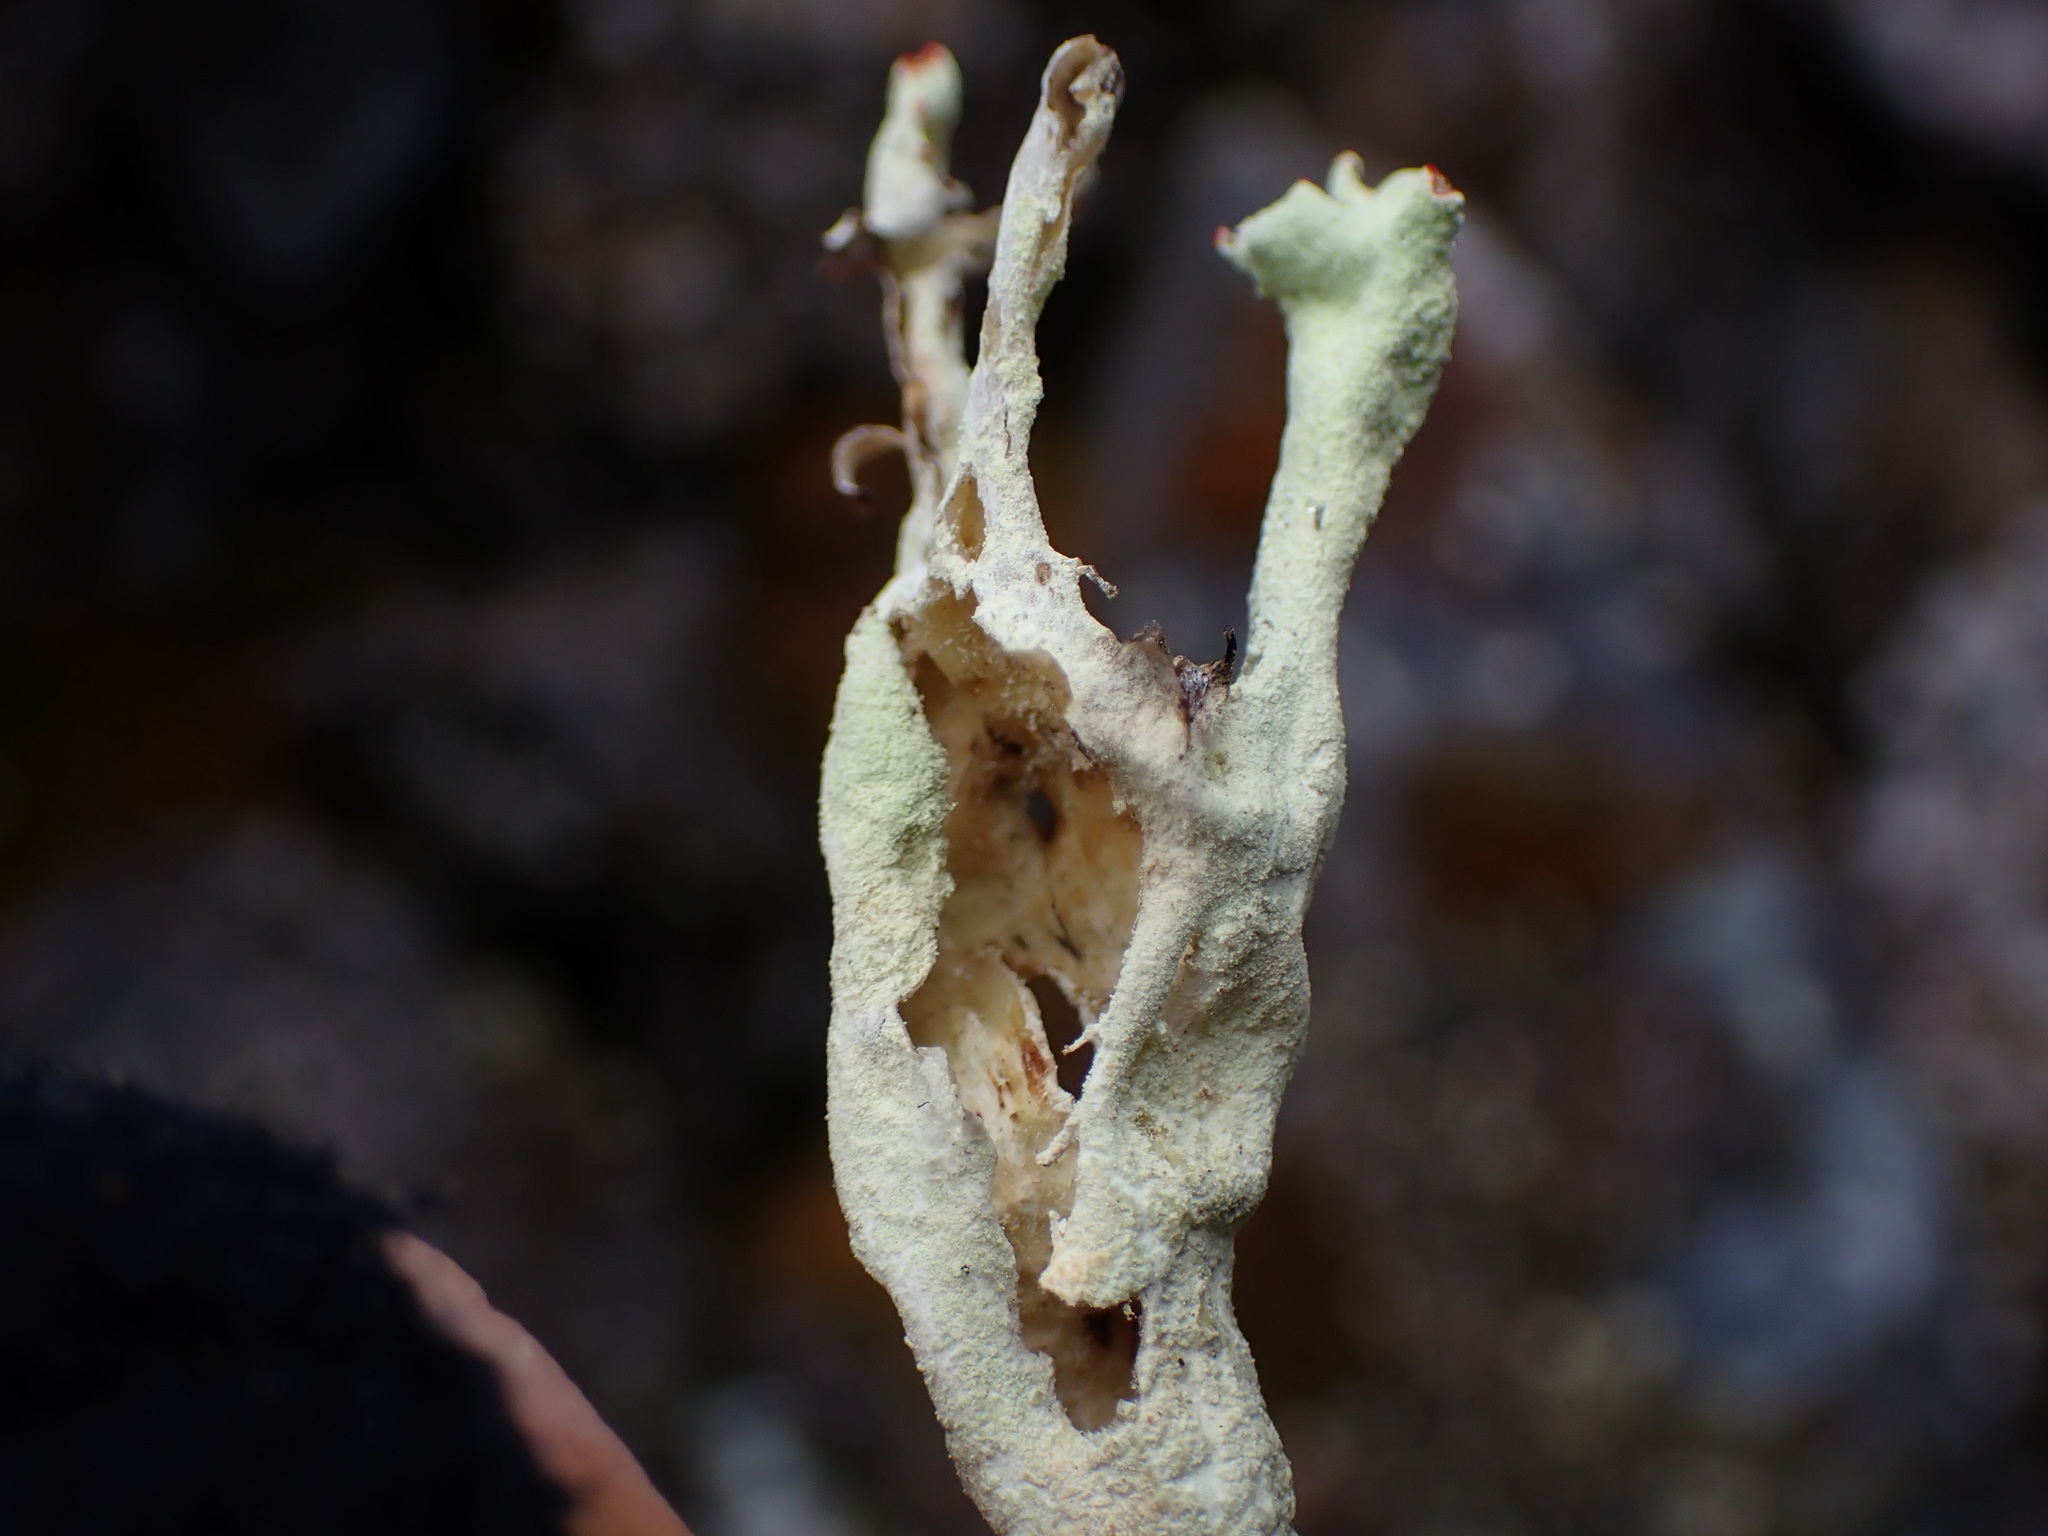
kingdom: Fungi
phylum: Ascomycota
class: Lecanoromycetes
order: Lecanorales
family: Cladoniaceae
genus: Cladonia
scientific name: Cladonia sulphurina
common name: Greater sulphur-cup lichen
